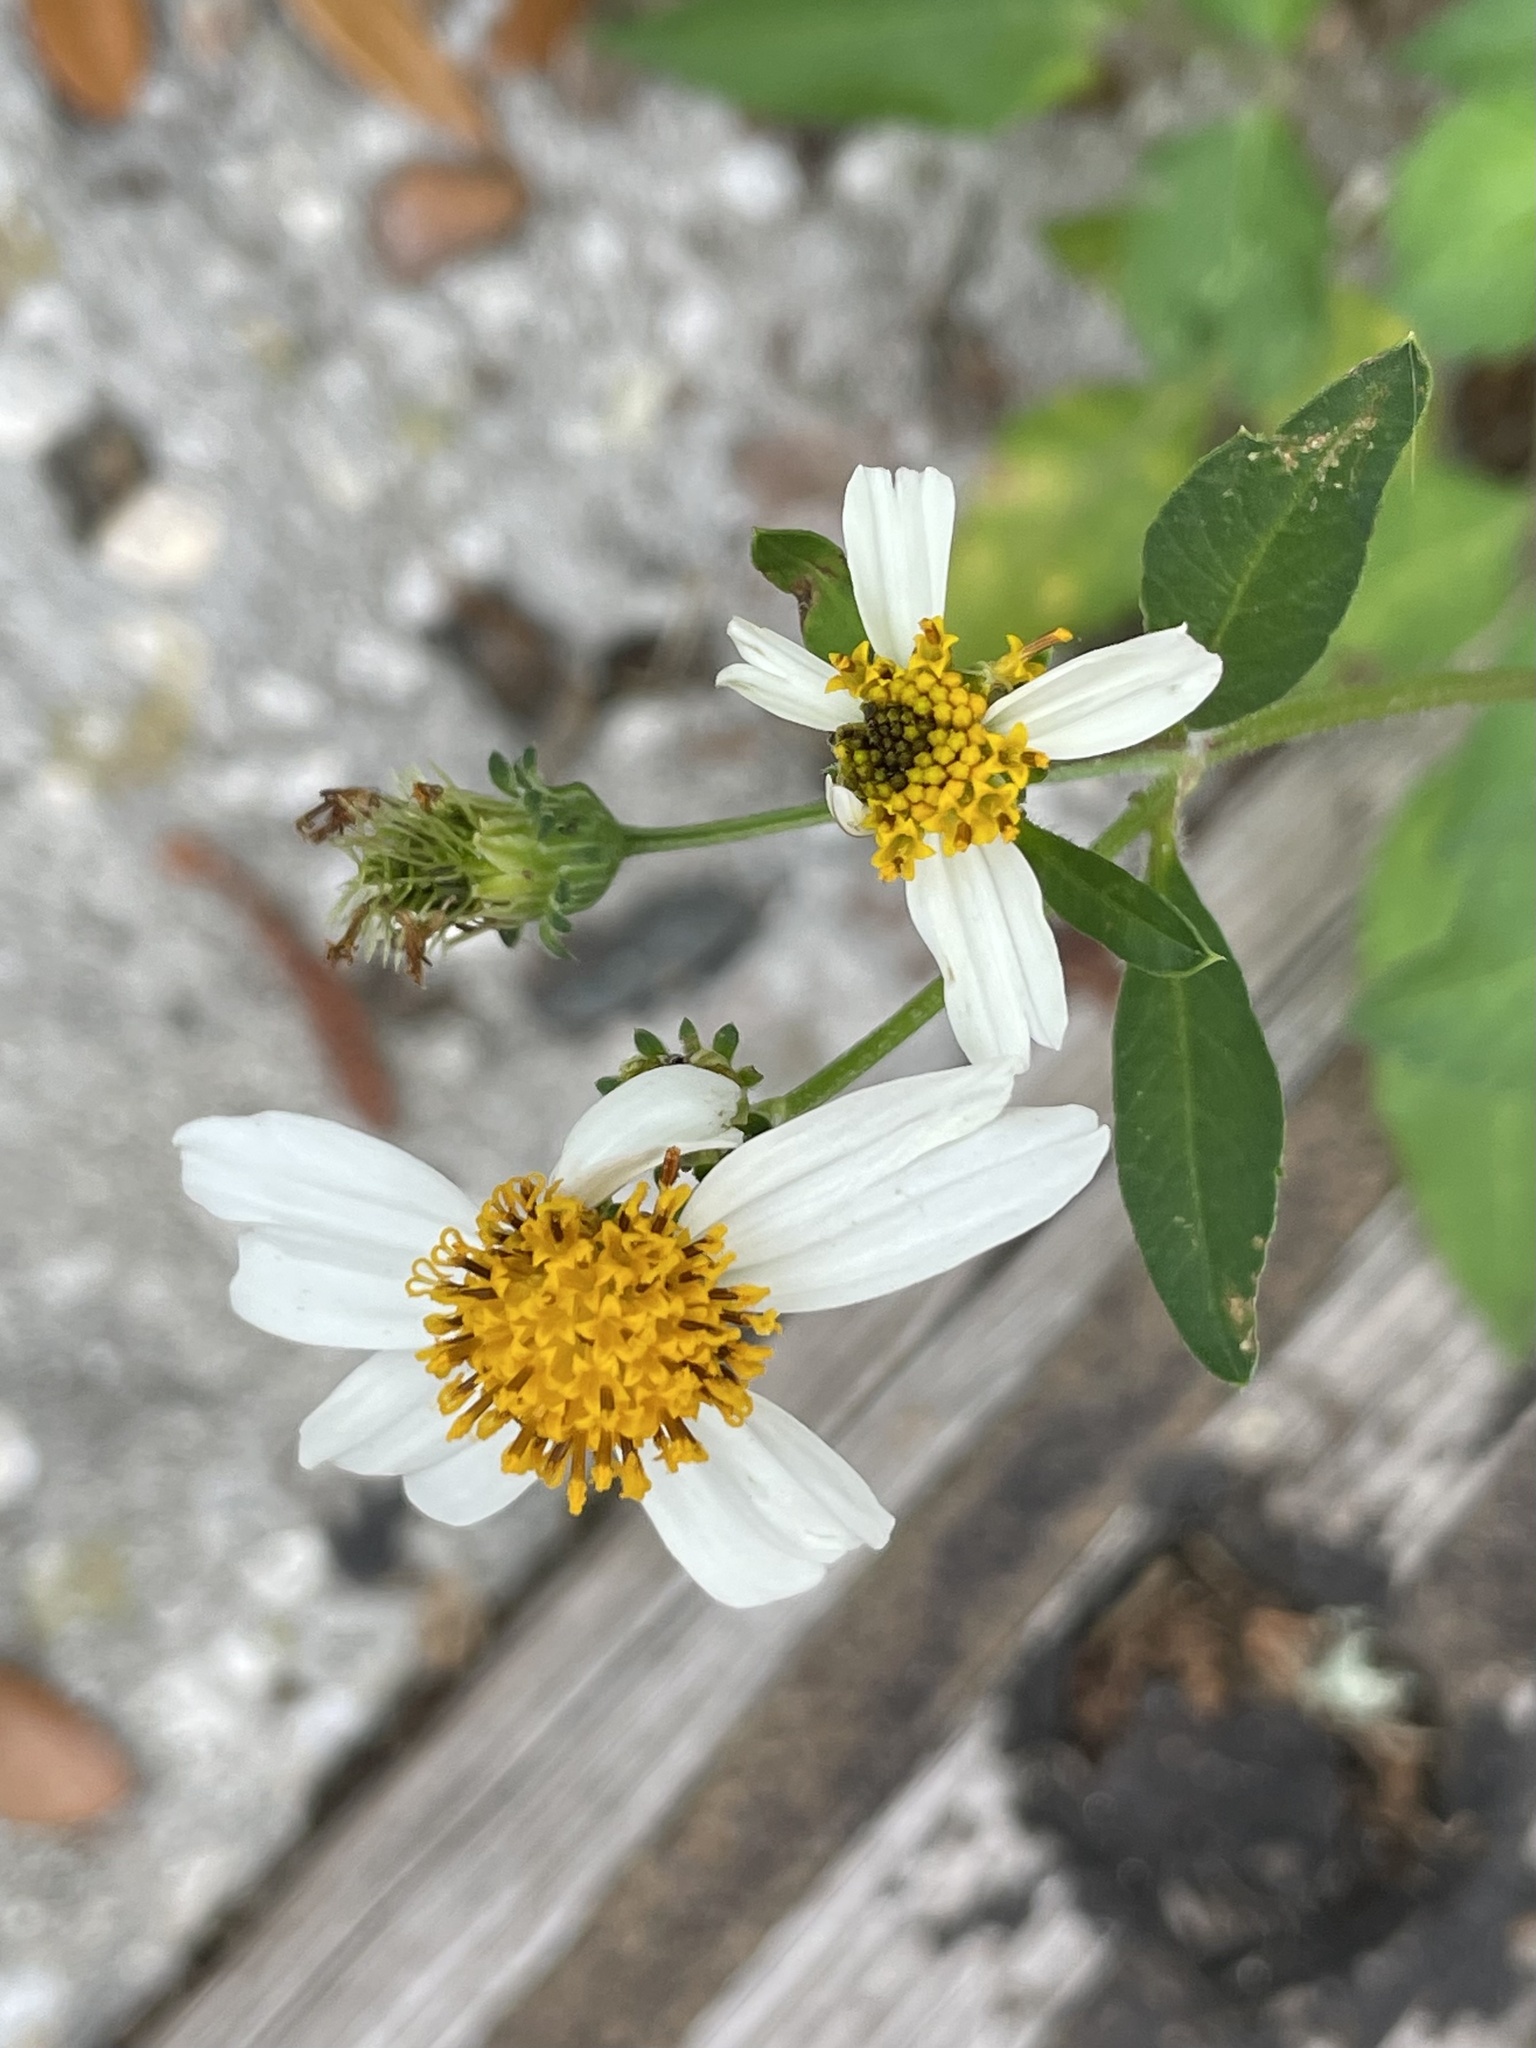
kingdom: Plantae
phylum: Tracheophyta
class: Magnoliopsida
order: Asterales
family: Asteraceae
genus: Bidens
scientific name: Bidens alba
